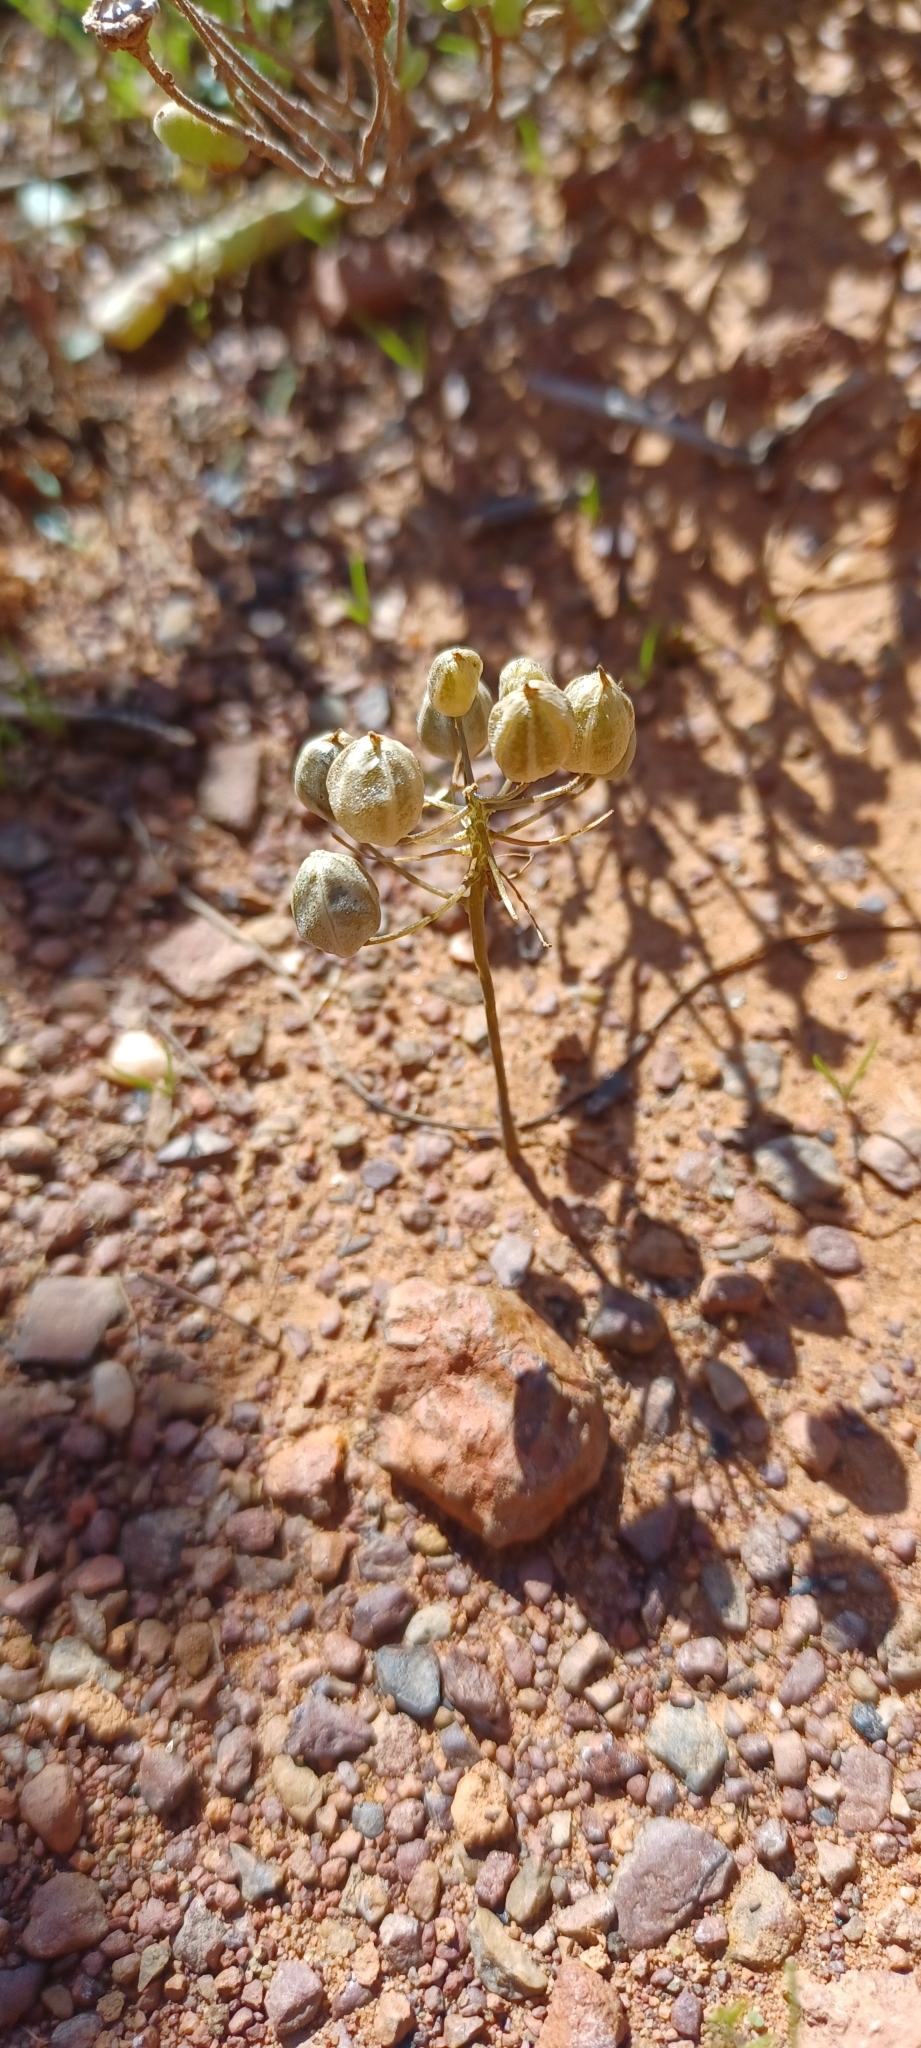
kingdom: Plantae
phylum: Tracheophyta
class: Liliopsida
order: Asparagales
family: Asparagaceae
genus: Fusifilum
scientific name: Fusifilum physodes
